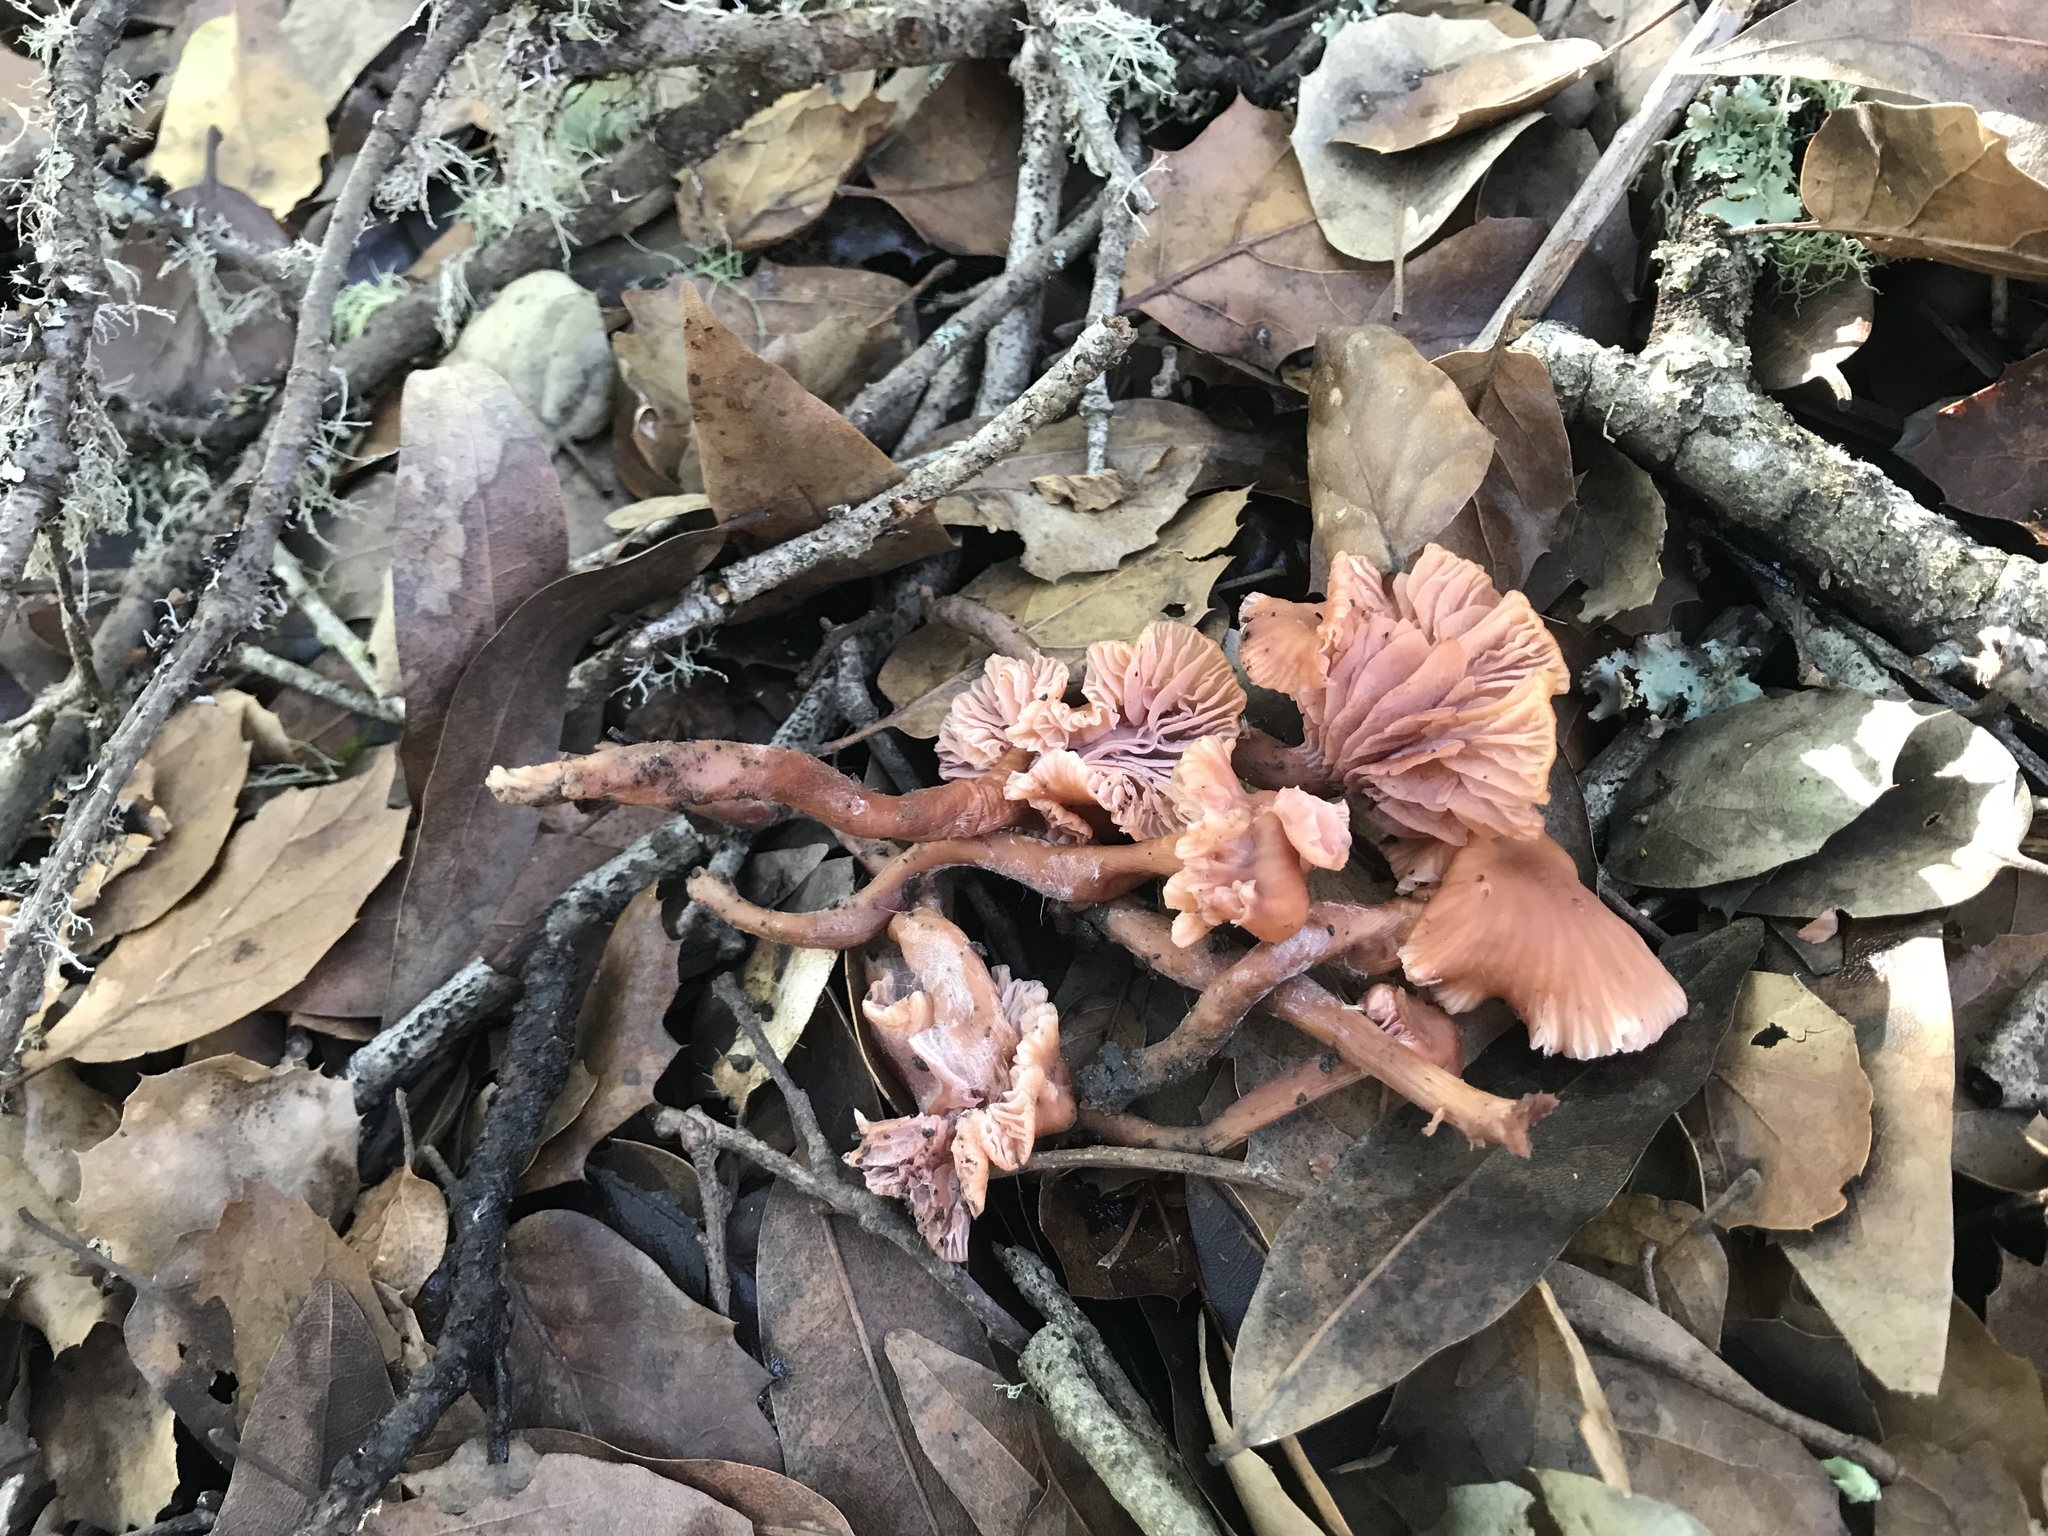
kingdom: Fungi
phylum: Basidiomycota
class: Agaricomycetes
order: Agaricales
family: Hydnangiaceae
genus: Laccaria
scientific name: Laccaria laccata
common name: Deceiver
